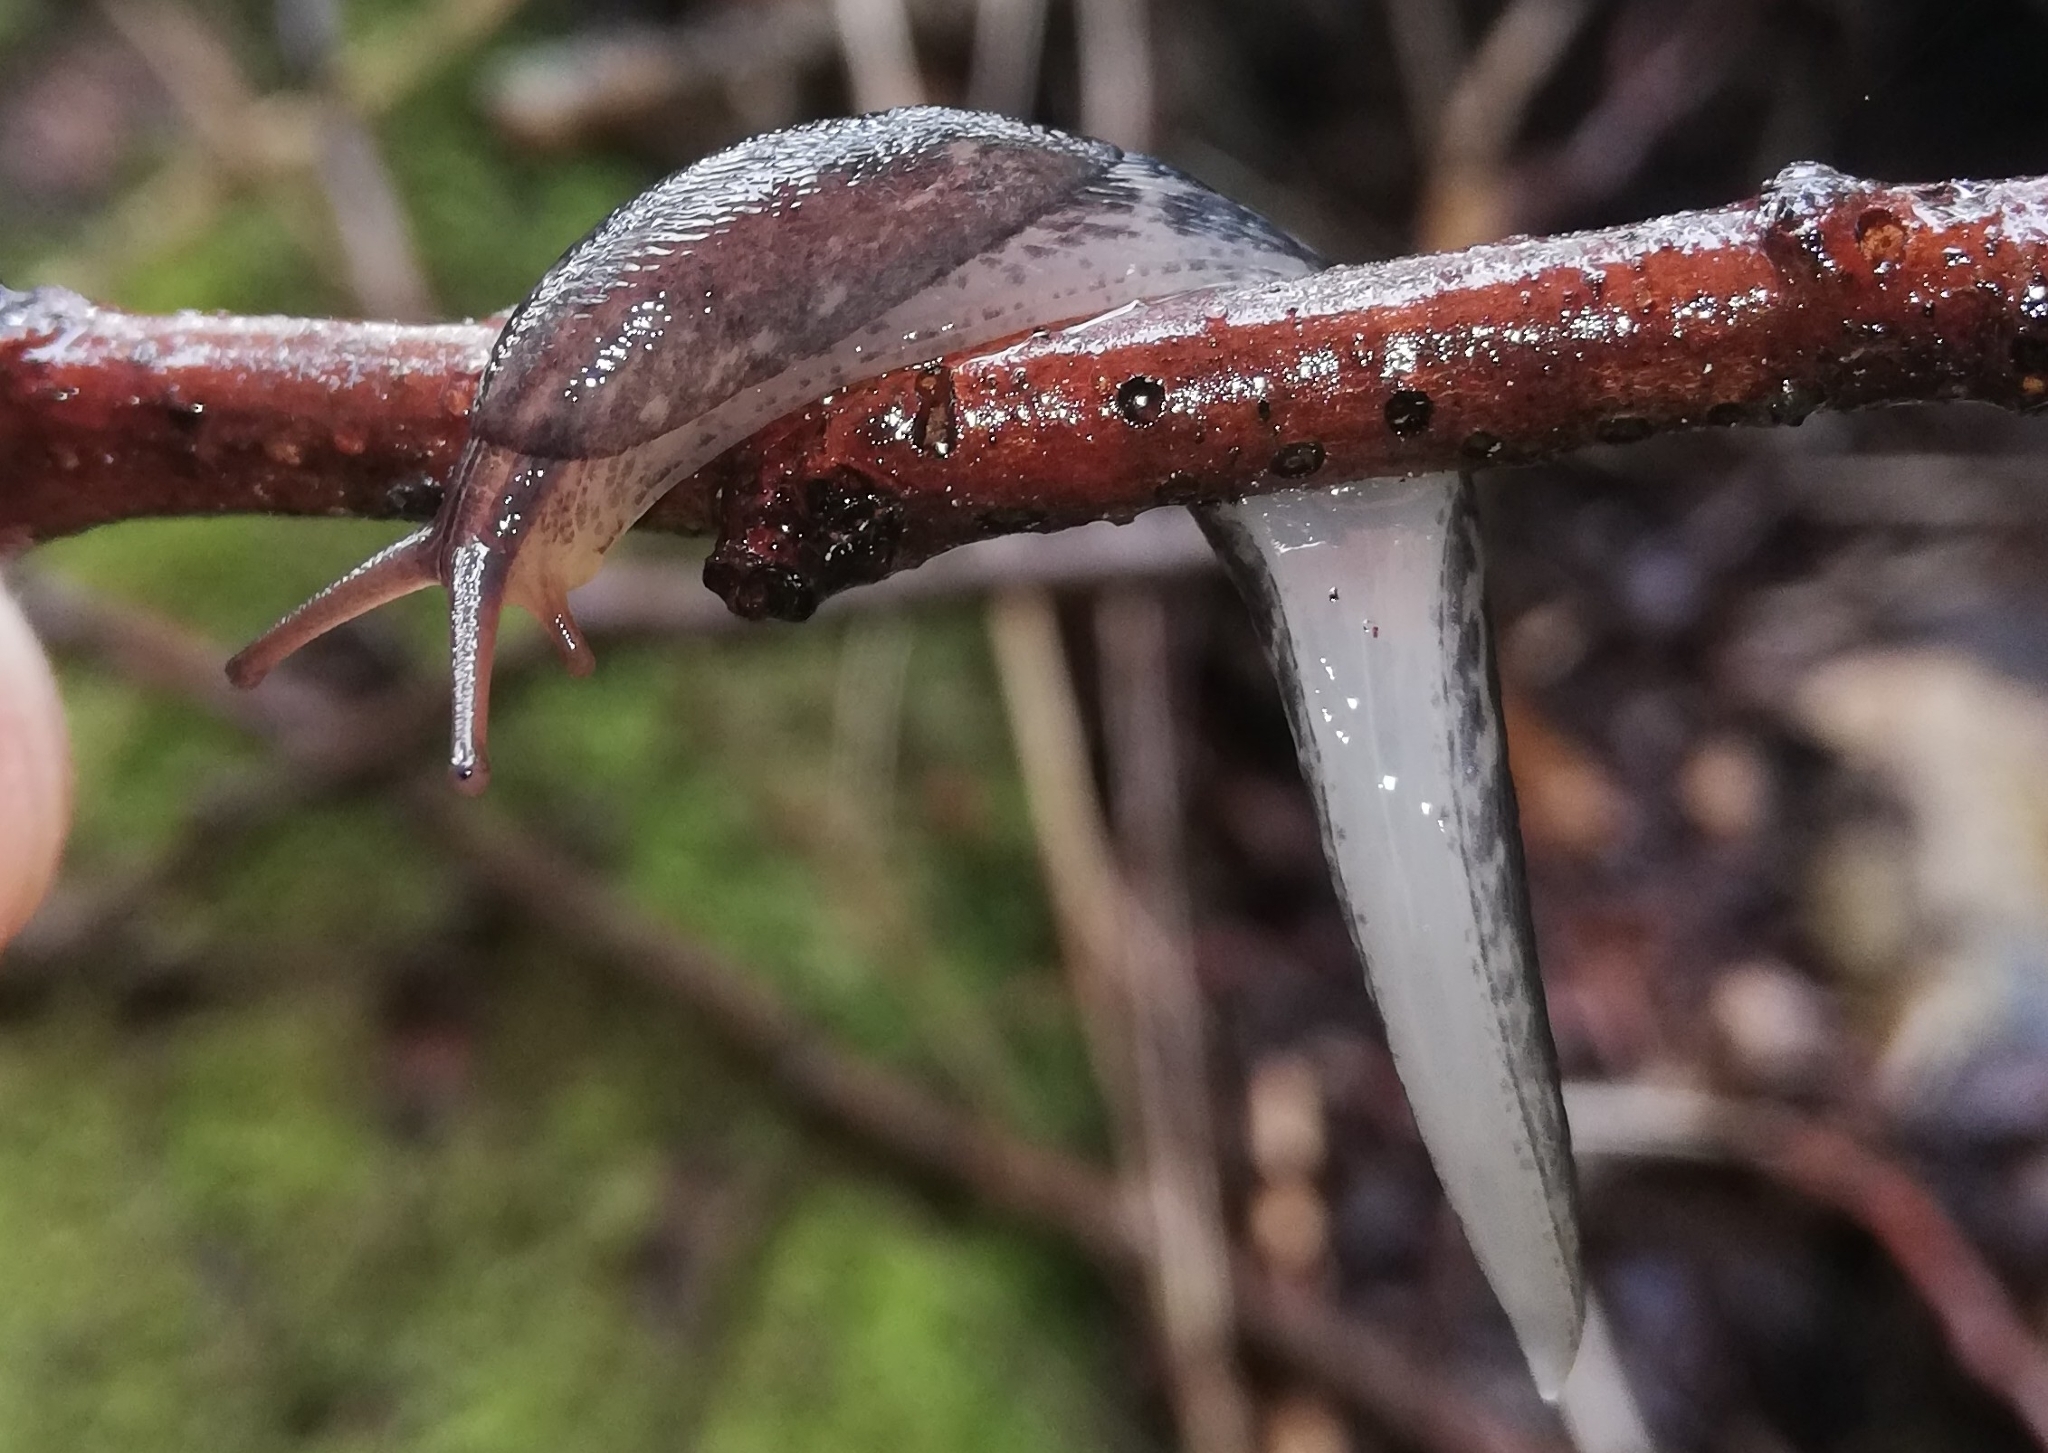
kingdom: Animalia
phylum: Mollusca
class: Gastropoda
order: Stylommatophora
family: Limacidae
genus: Limax
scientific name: Limax maximus
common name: Great grey slug
